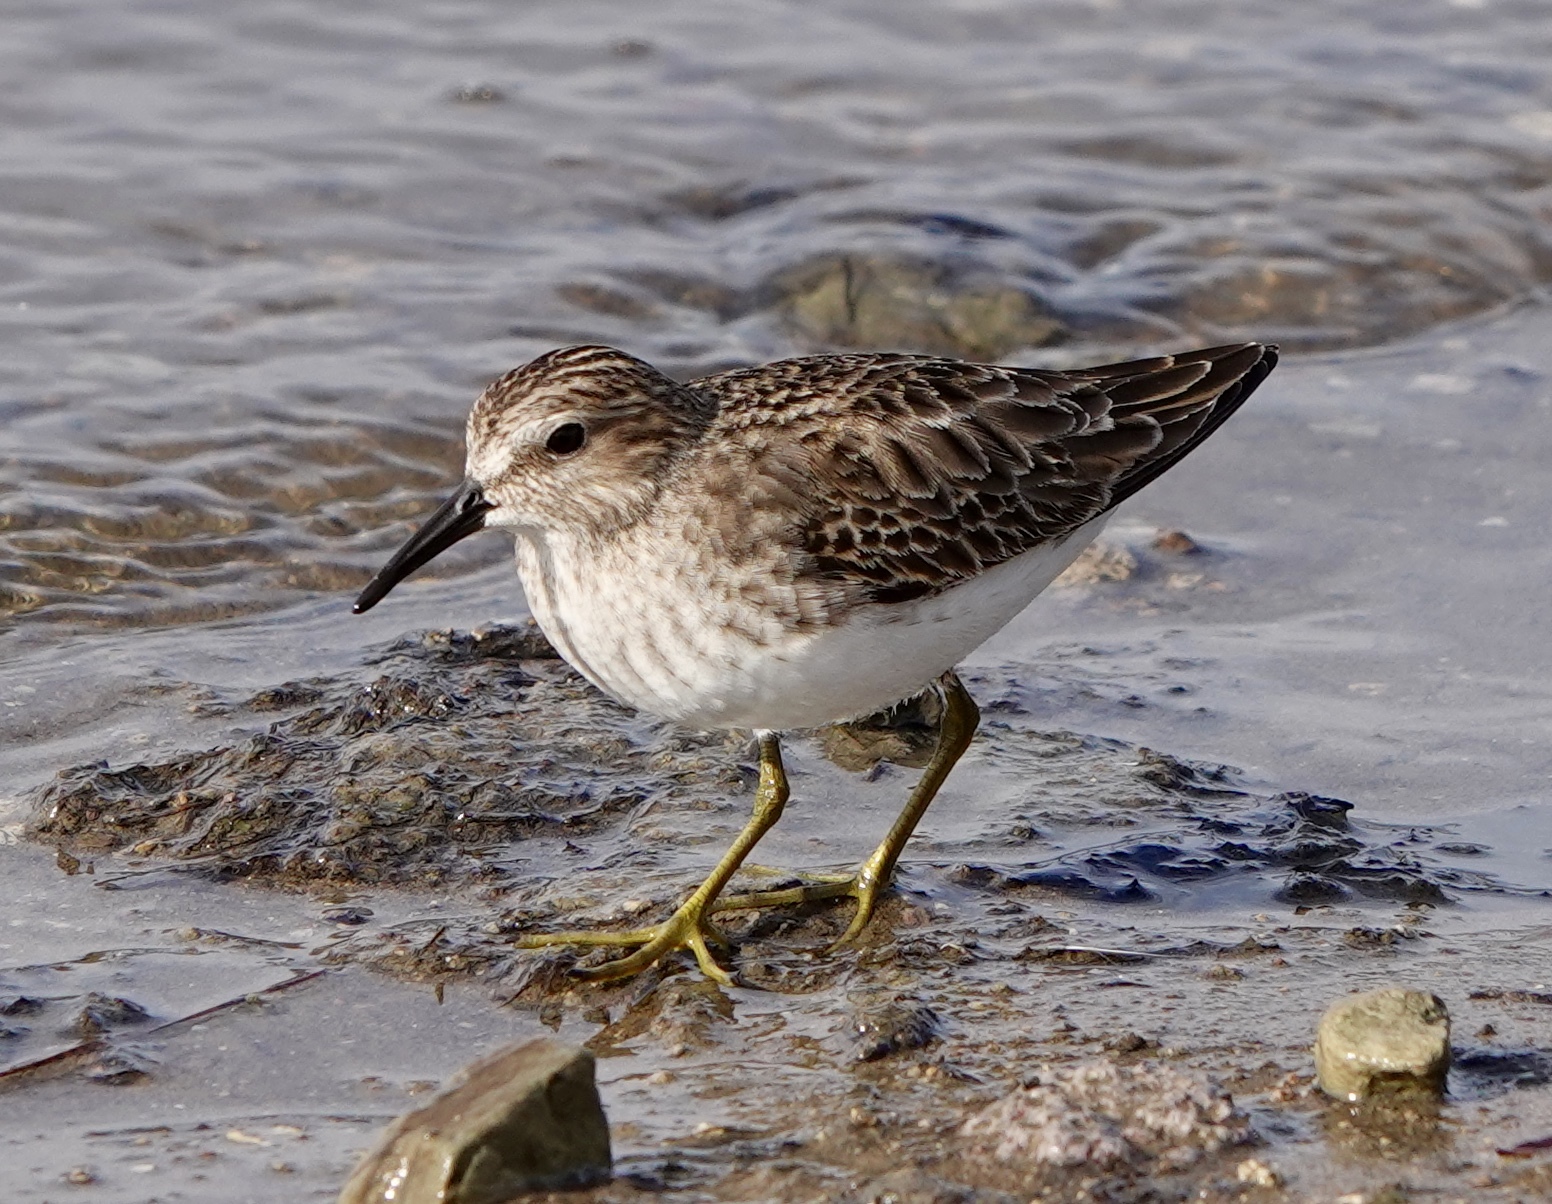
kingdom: Animalia
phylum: Chordata
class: Aves
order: Charadriiformes
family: Scolopacidae
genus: Calidris
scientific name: Calidris minutilla
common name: Least sandpiper
